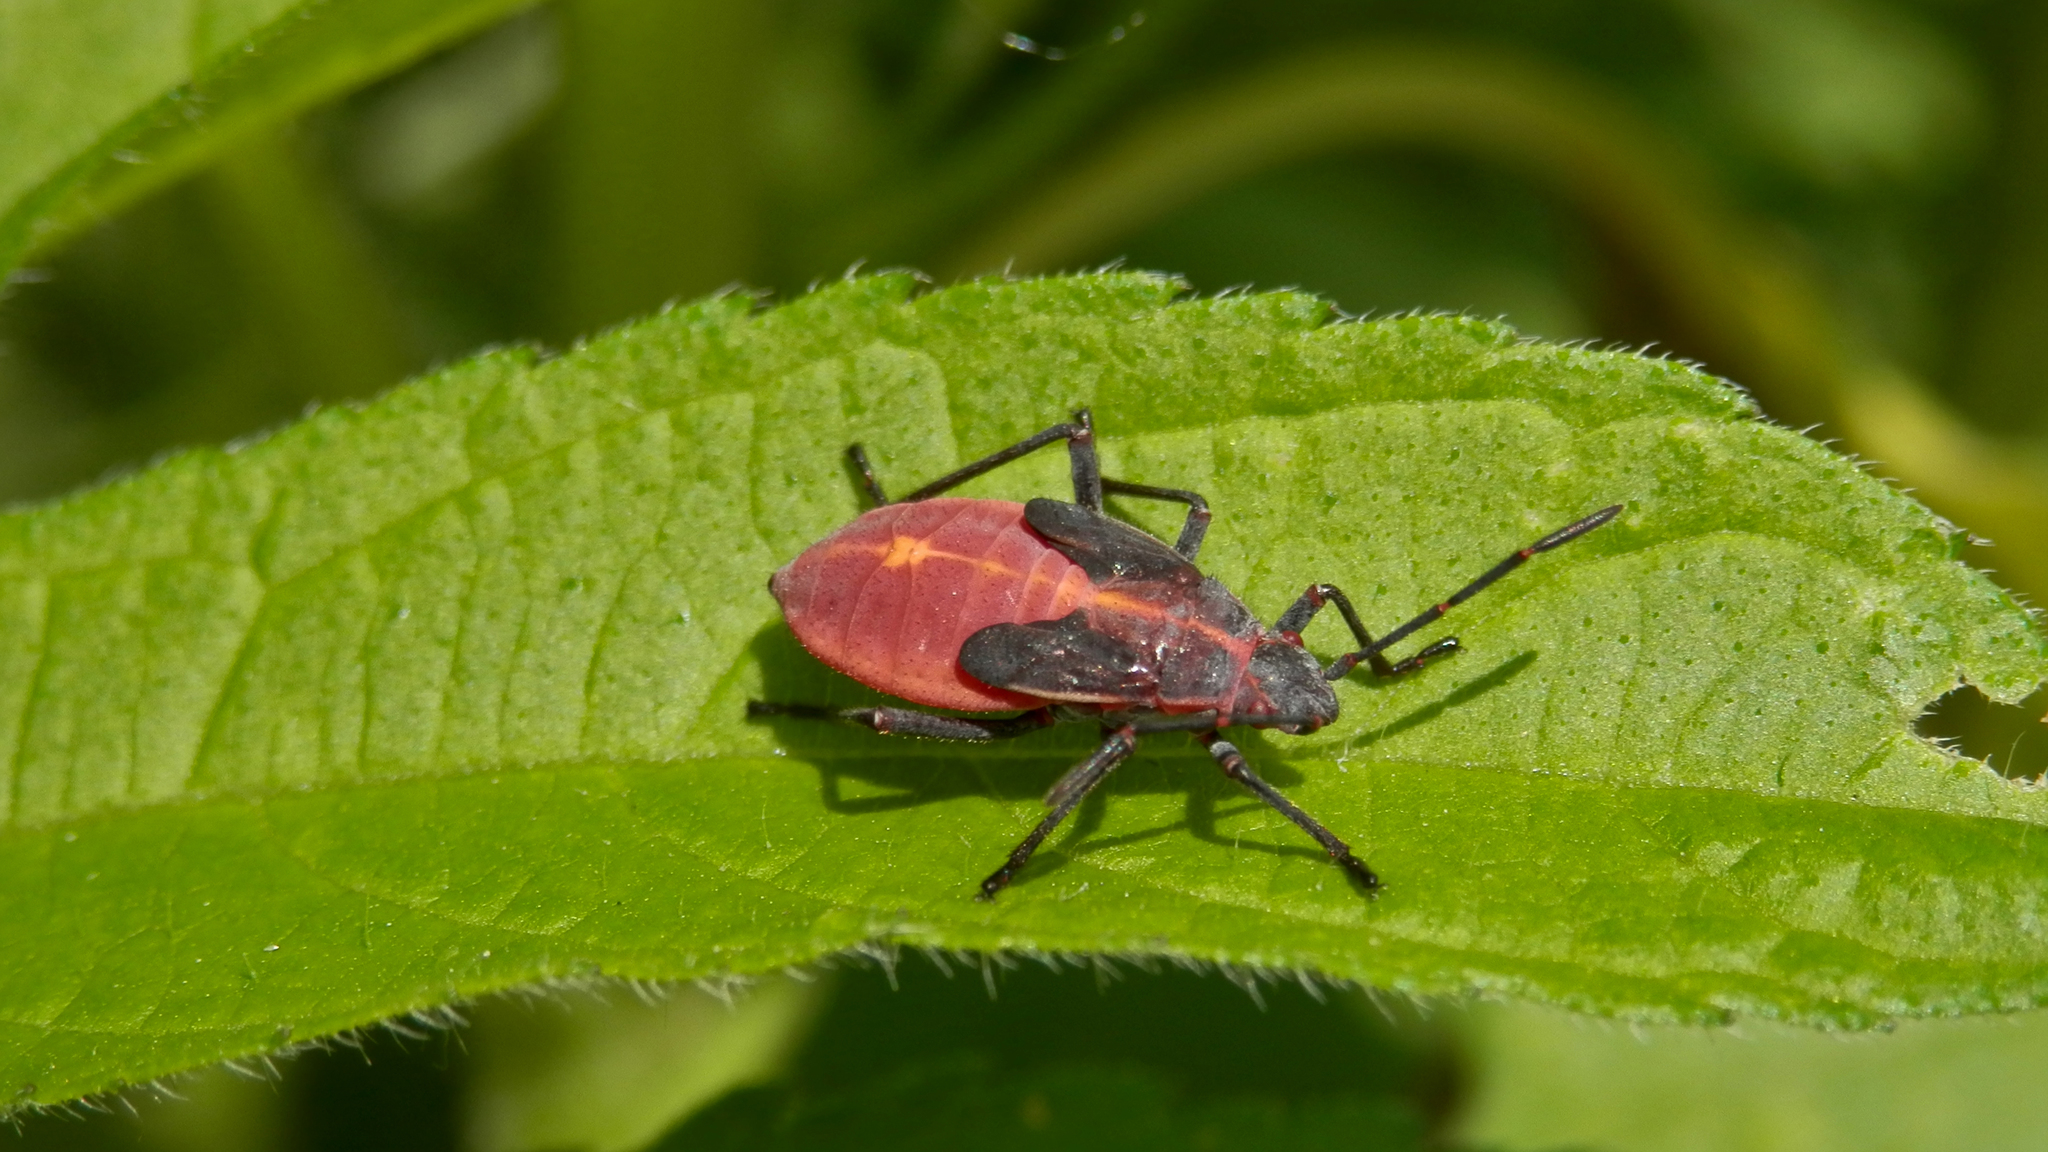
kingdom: Animalia
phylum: Arthropoda
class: Insecta
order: Hemiptera
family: Rhopalidae
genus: Boisea
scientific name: Boisea trivittata
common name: Boxelder bug
